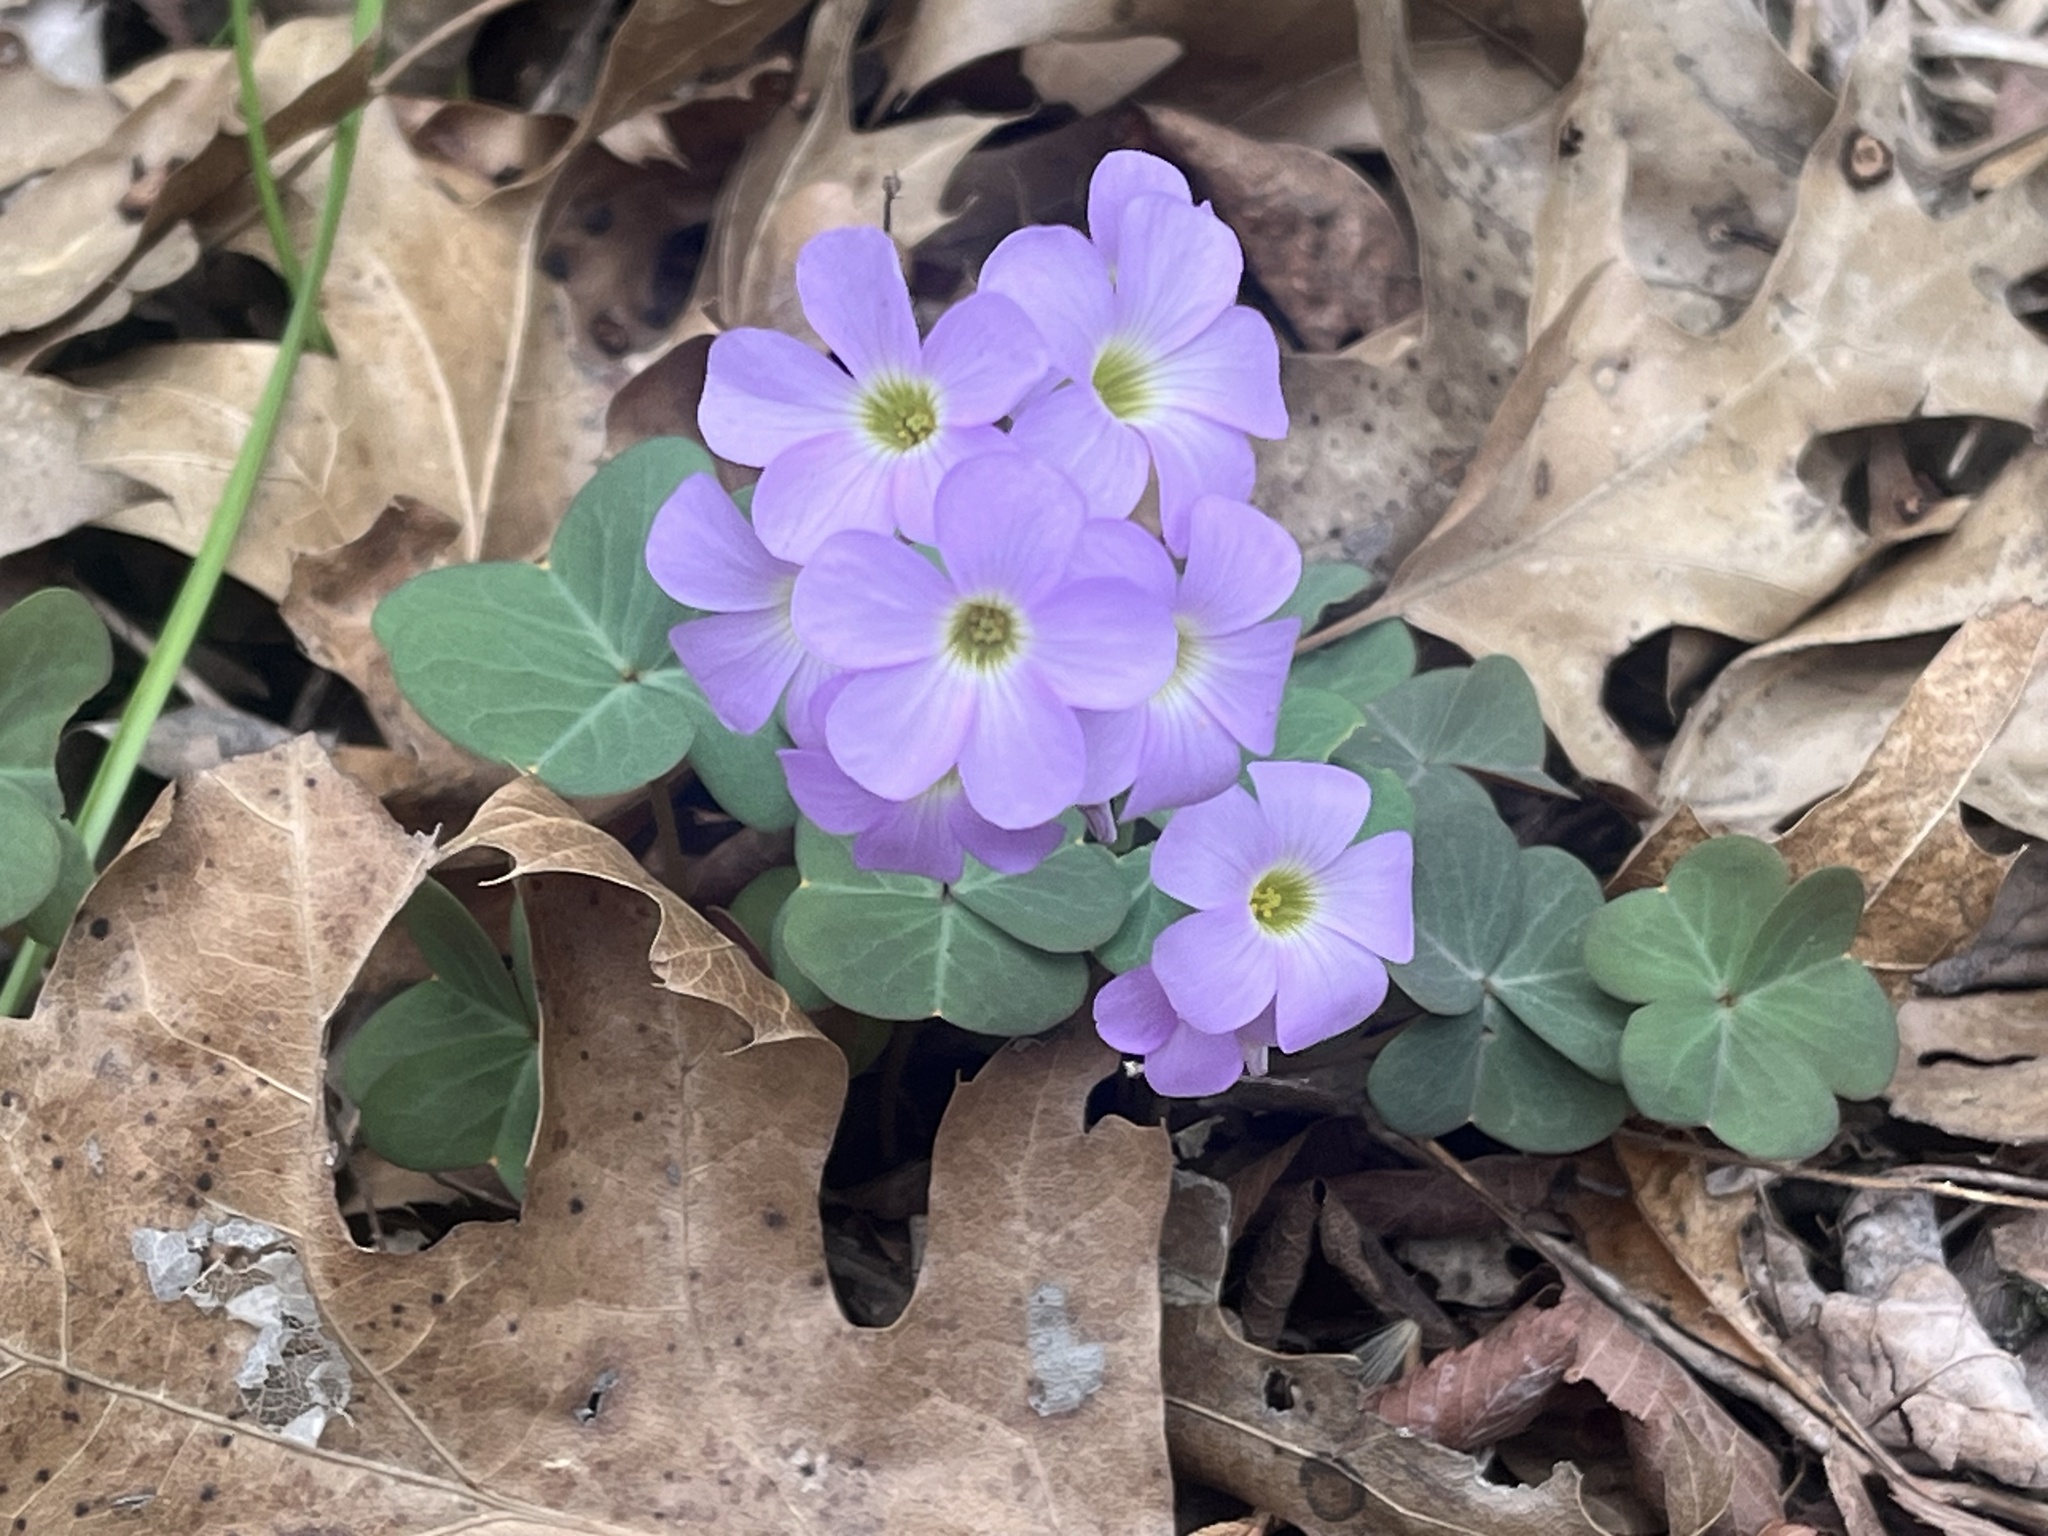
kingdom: Plantae
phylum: Tracheophyta
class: Magnoliopsida
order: Oxalidales
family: Oxalidaceae
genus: Oxalis
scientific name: Oxalis violacea
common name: Violet wood-sorrel
